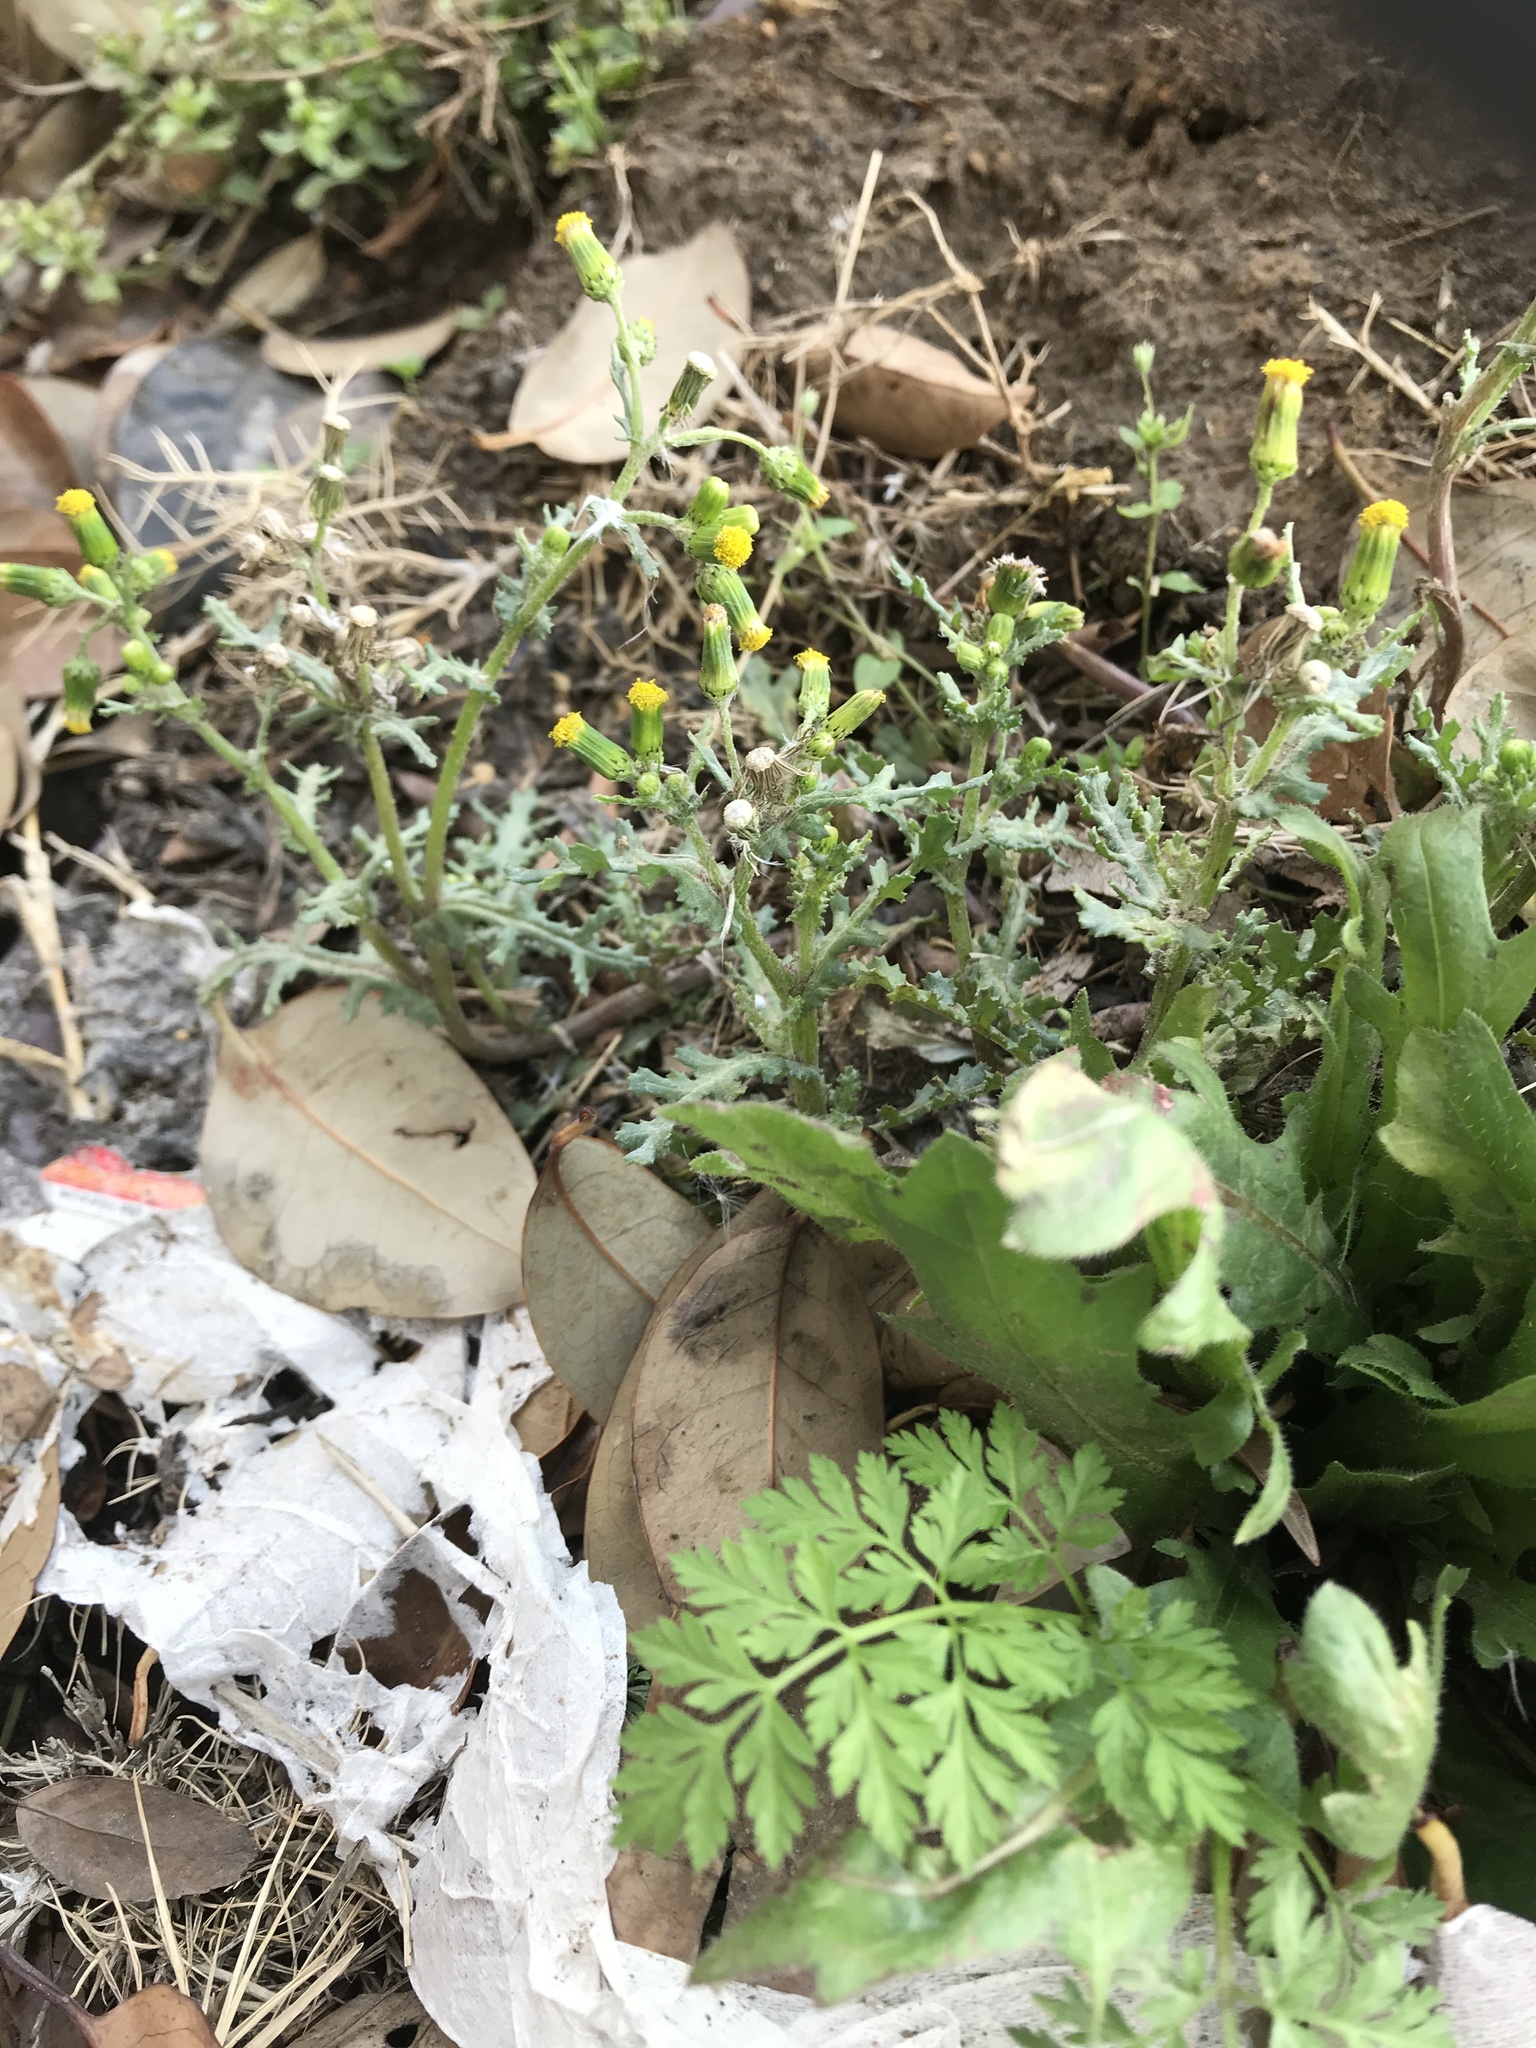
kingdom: Plantae
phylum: Tracheophyta
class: Magnoliopsida
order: Asterales
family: Asteraceae
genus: Senecio
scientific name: Senecio vulgaris
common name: Old-man-in-the-spring
